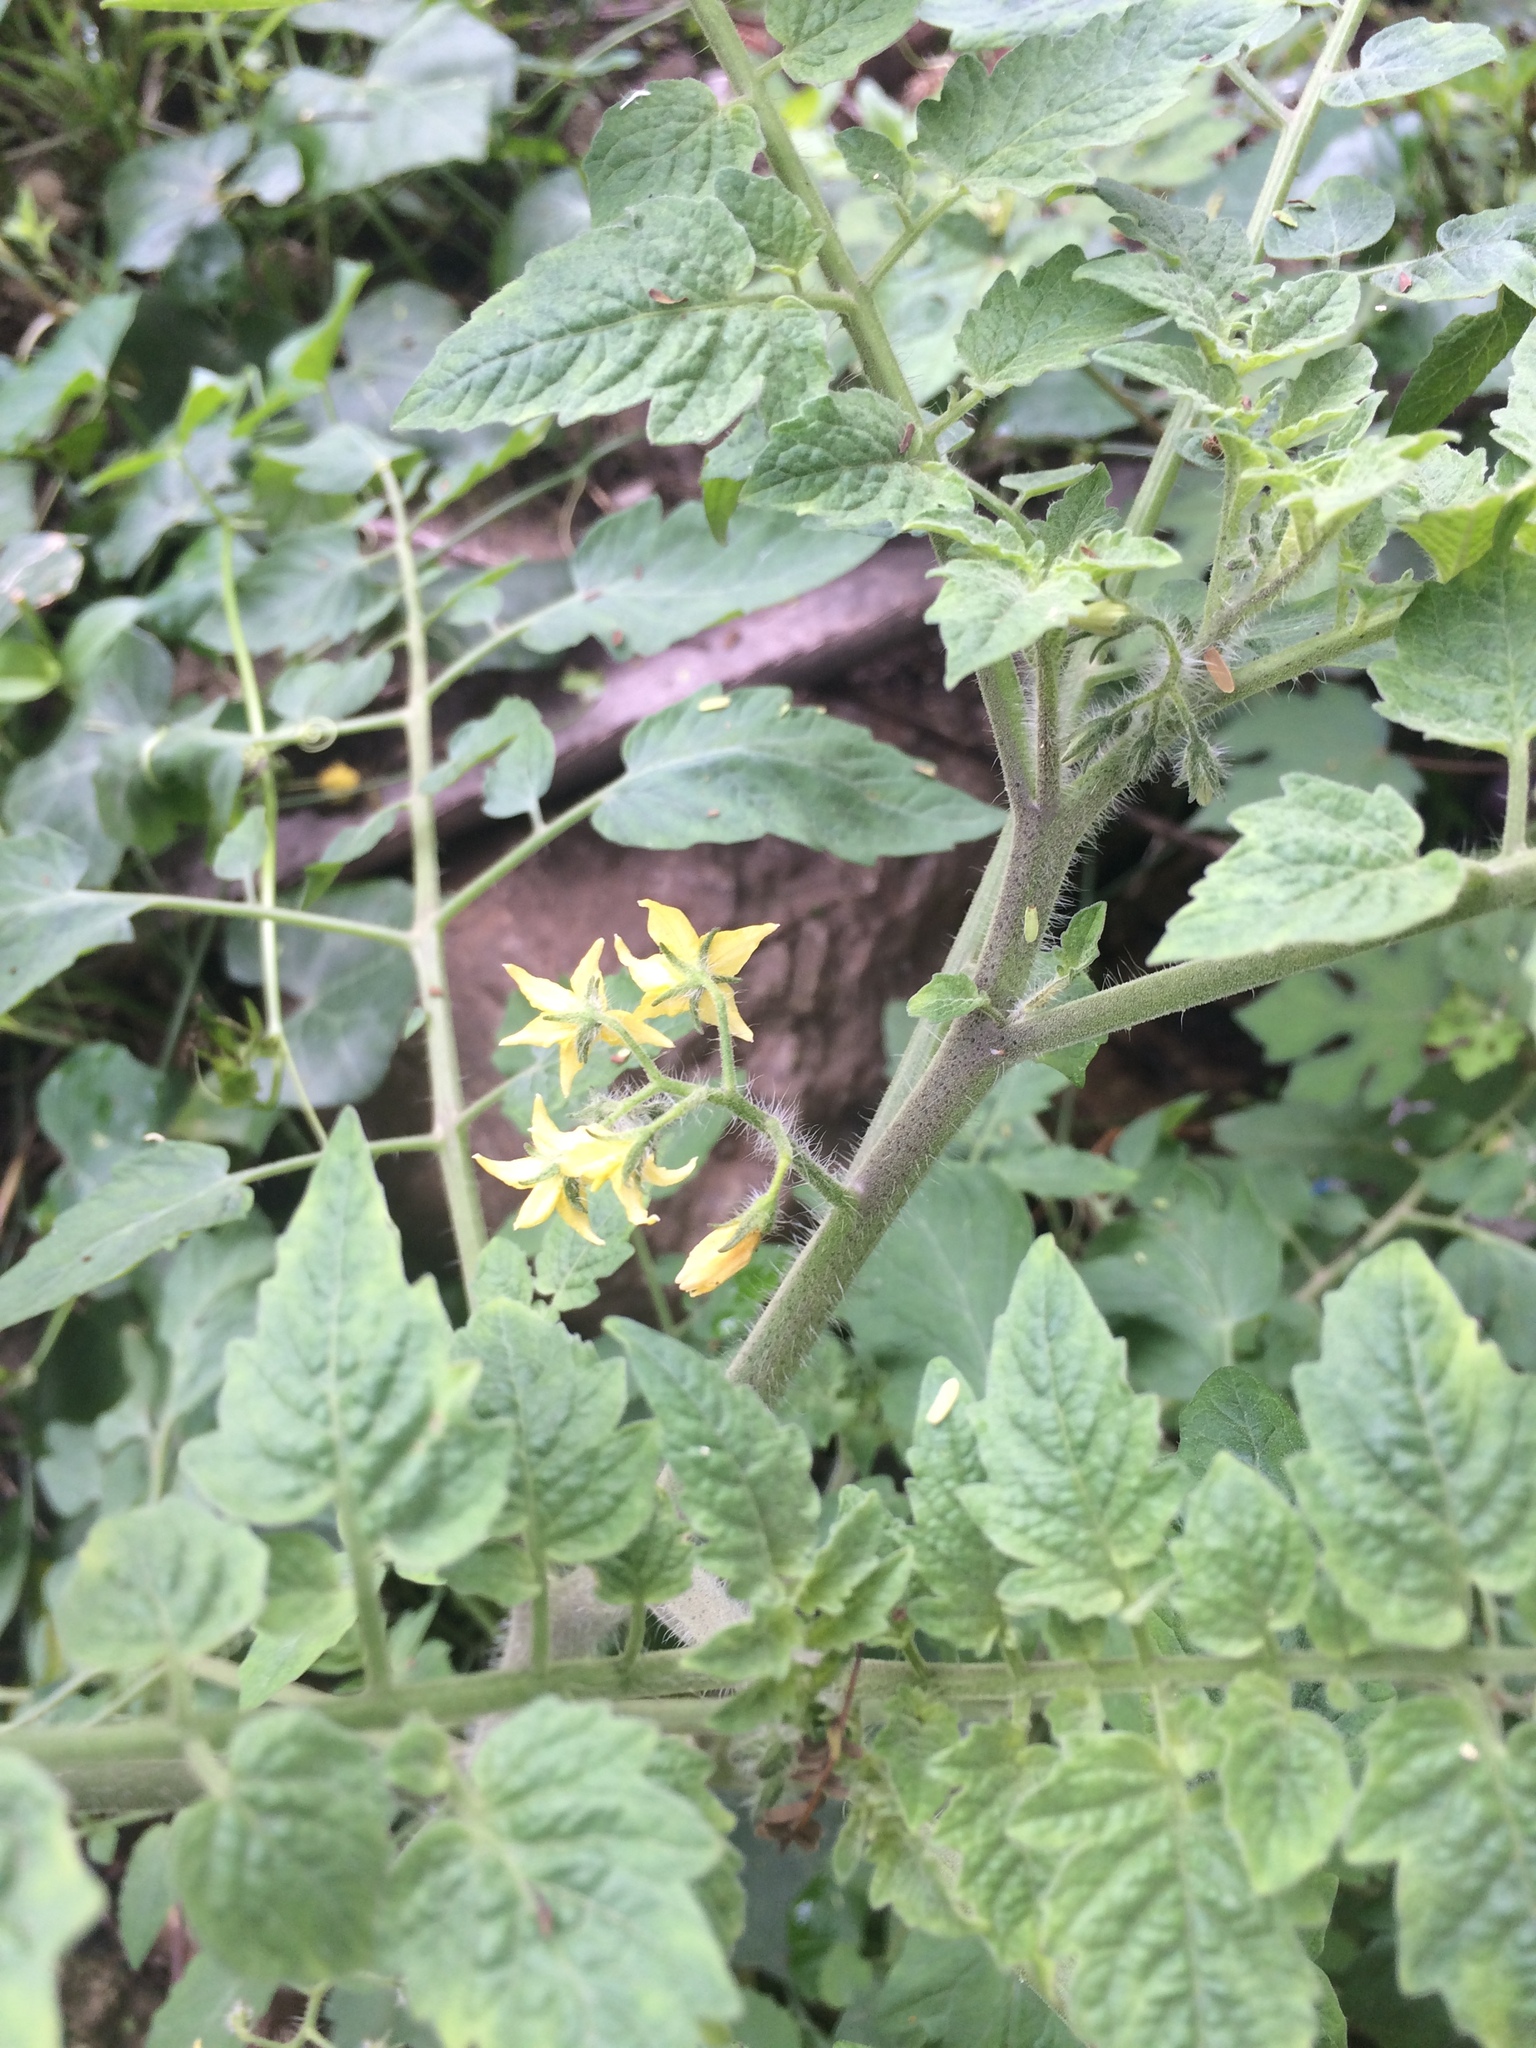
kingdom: Plantae
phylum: Tracheophyta
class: Magnoliopsida
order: Solanales
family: Solanaceae
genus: Solanum
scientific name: Solanum lycopersicum
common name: Garden tomato
